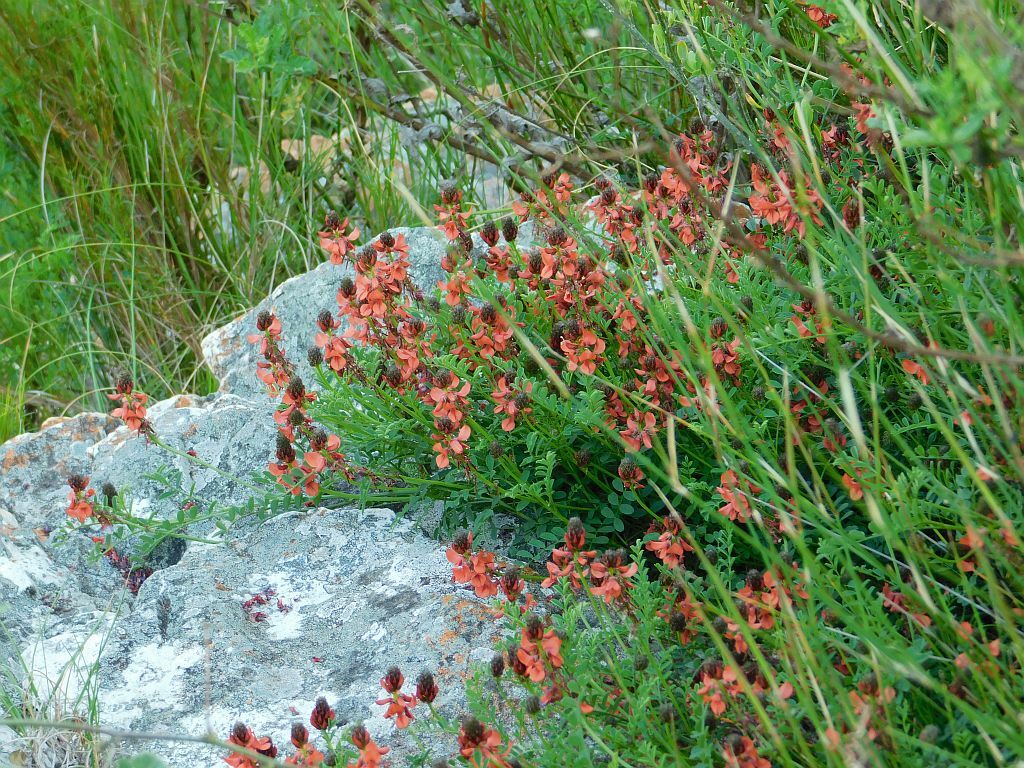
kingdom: Plantae
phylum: Tracheophyta
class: Magnoliopsida
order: Fabales
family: Fabaceae
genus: Indigofera
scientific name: Indigofera capillaris
